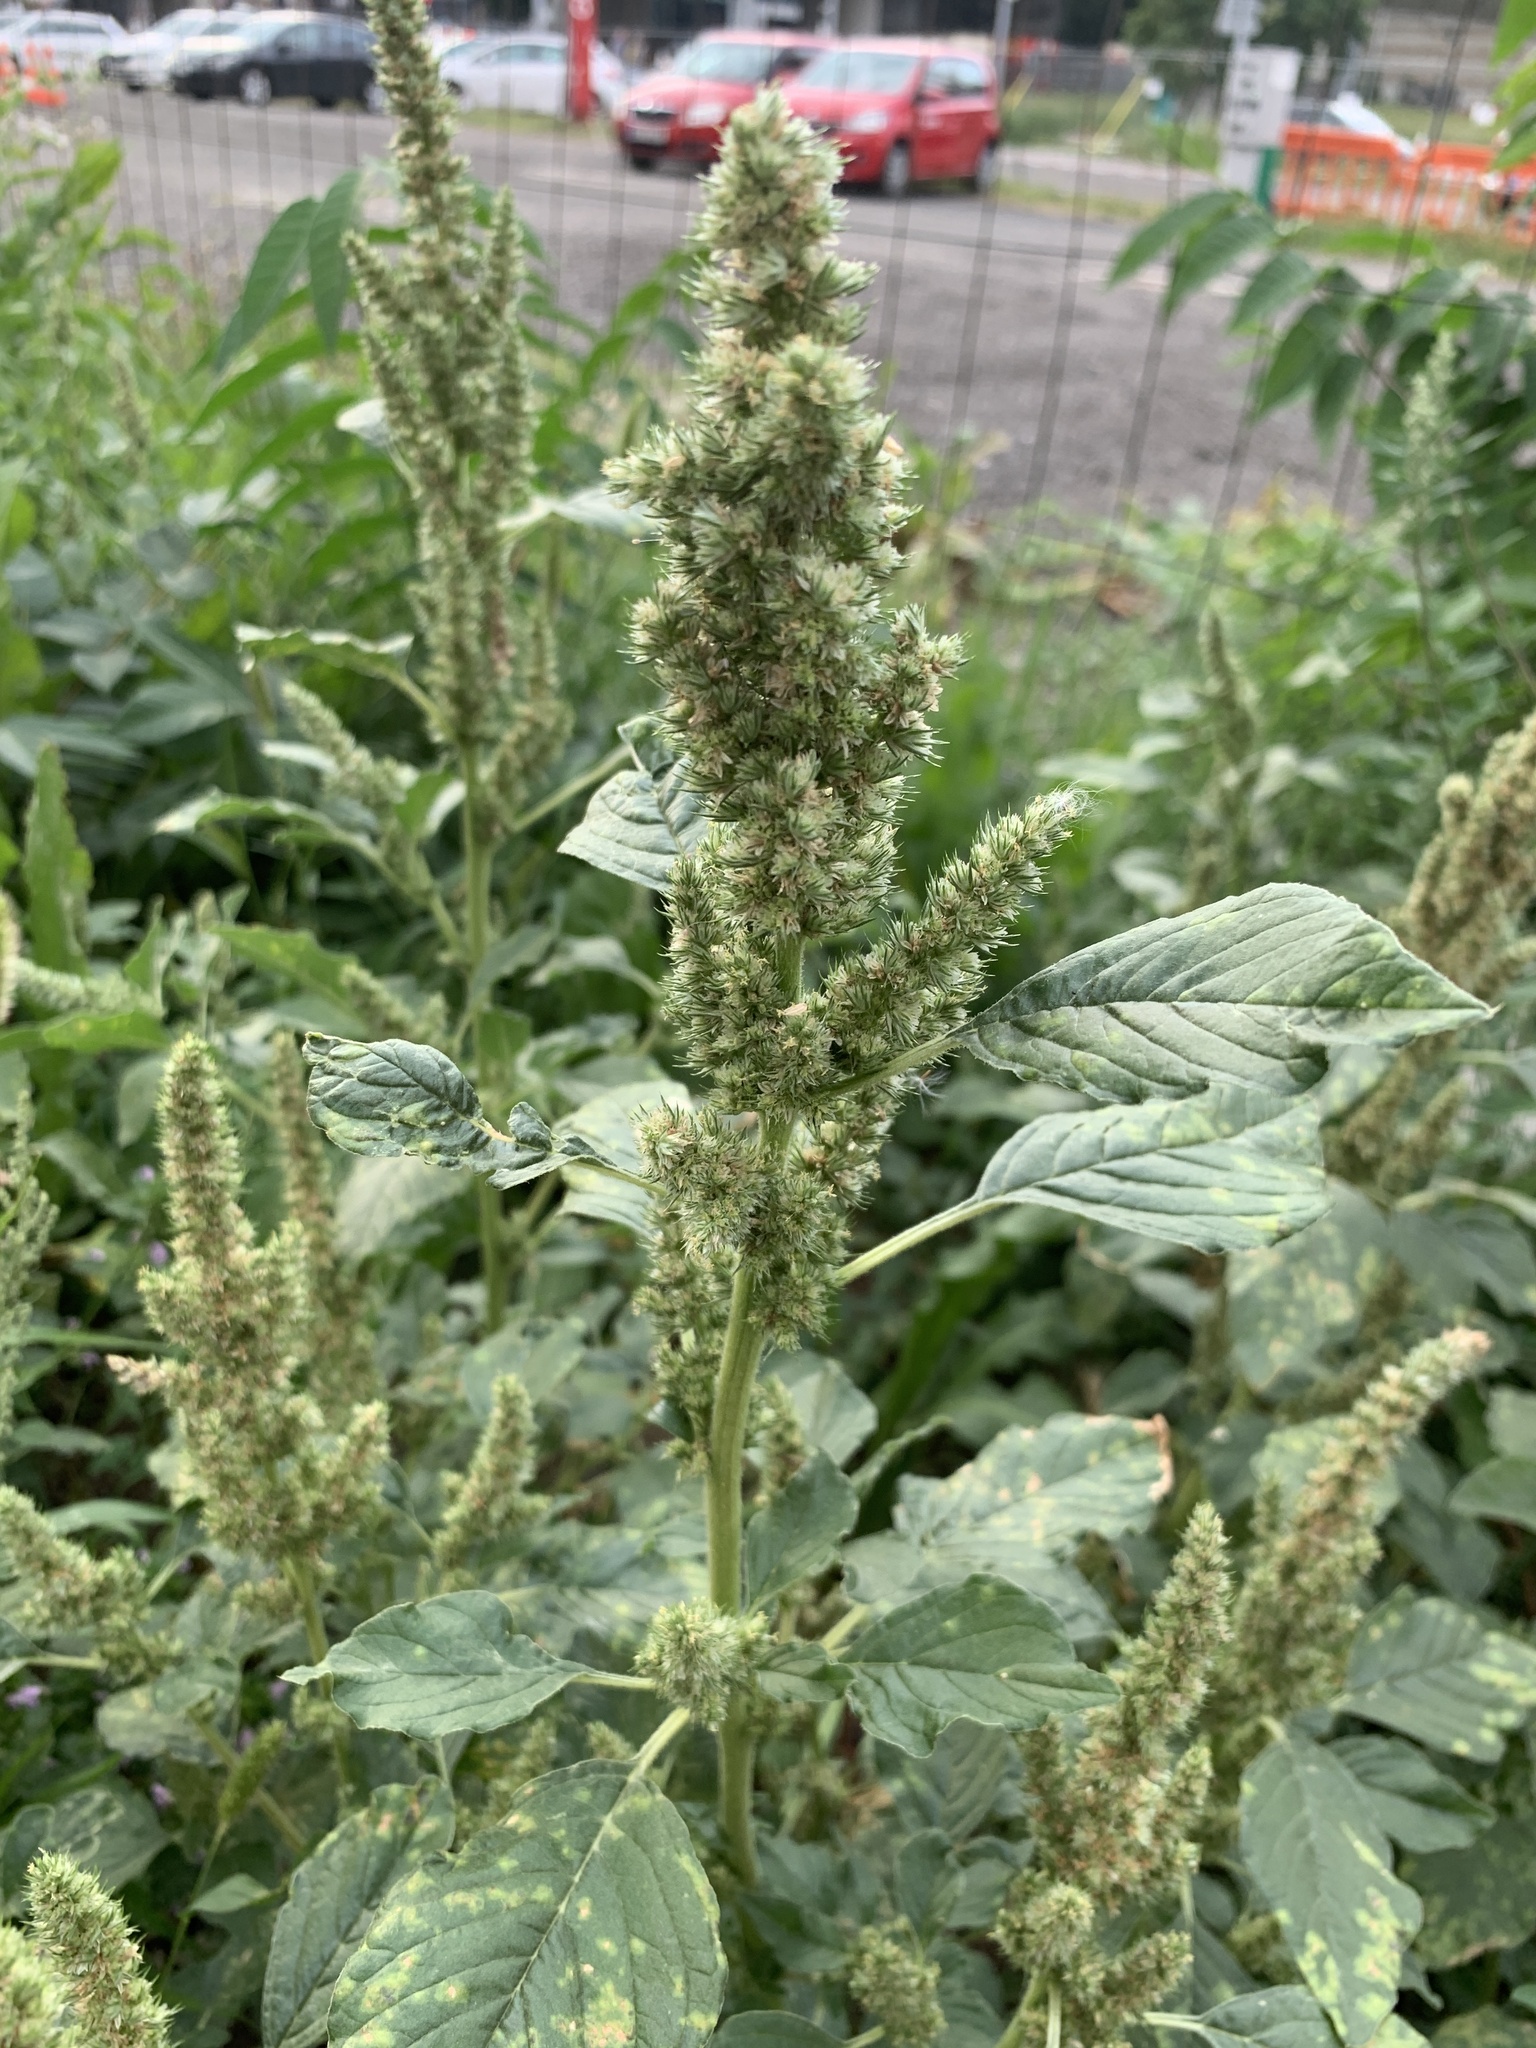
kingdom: Plantae
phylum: Tracheophyta
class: Magnoliopsida
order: Caryophyllales
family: Amaranthaceae
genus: Amaranthus
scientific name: Amaranthus retroflexus
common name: Redroot amaranth
